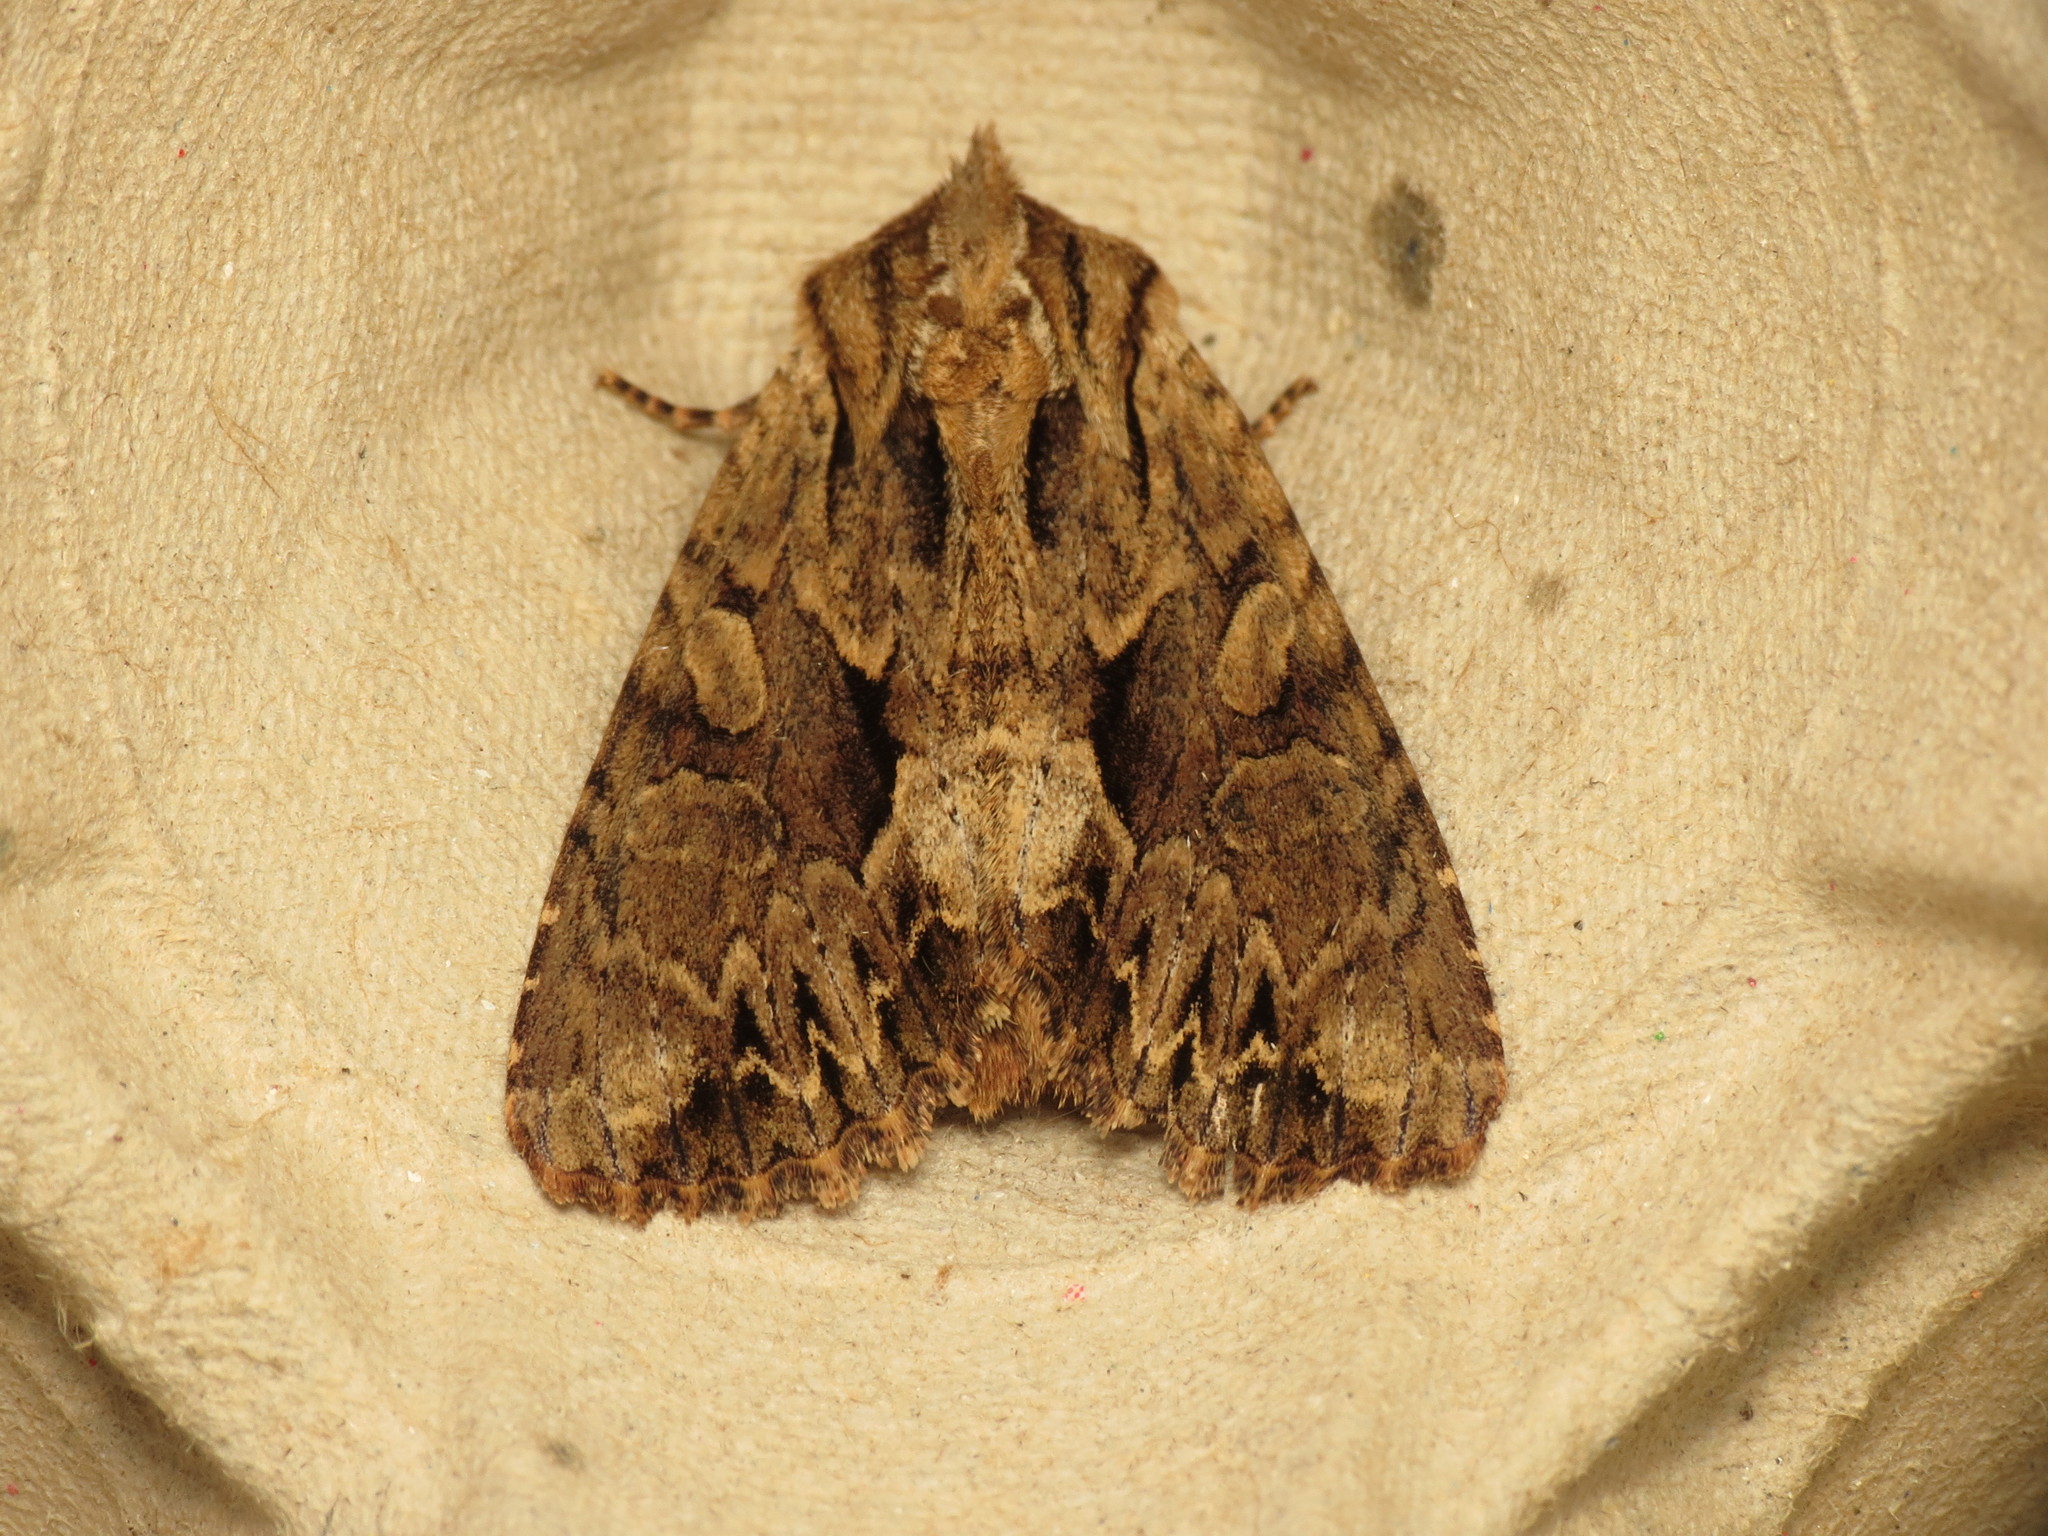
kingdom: Animalia
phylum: Arthropoda
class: Insecta
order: Lepidoptera
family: Noctuidae
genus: Apamea
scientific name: Apamea monoglypha
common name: Dark arches
